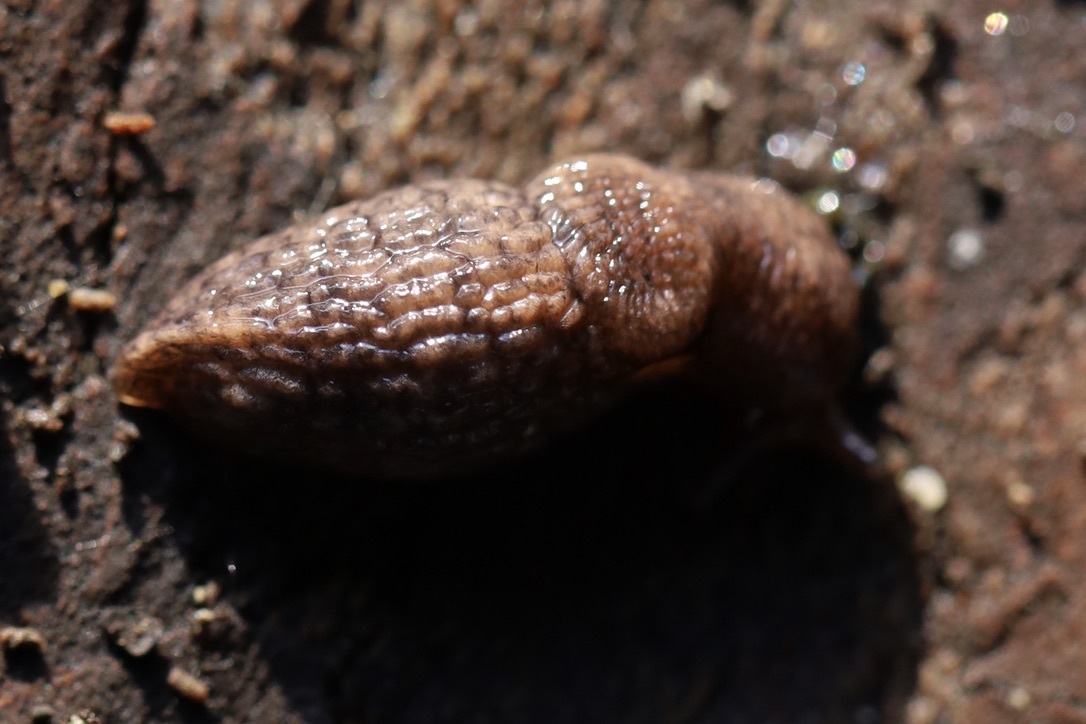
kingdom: Animalia
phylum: Mollusca
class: Gastropoda
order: Stylommatophora
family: Agriolimacidae
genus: Deroceras
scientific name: Deroceras reticulatum
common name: Gray field slug
